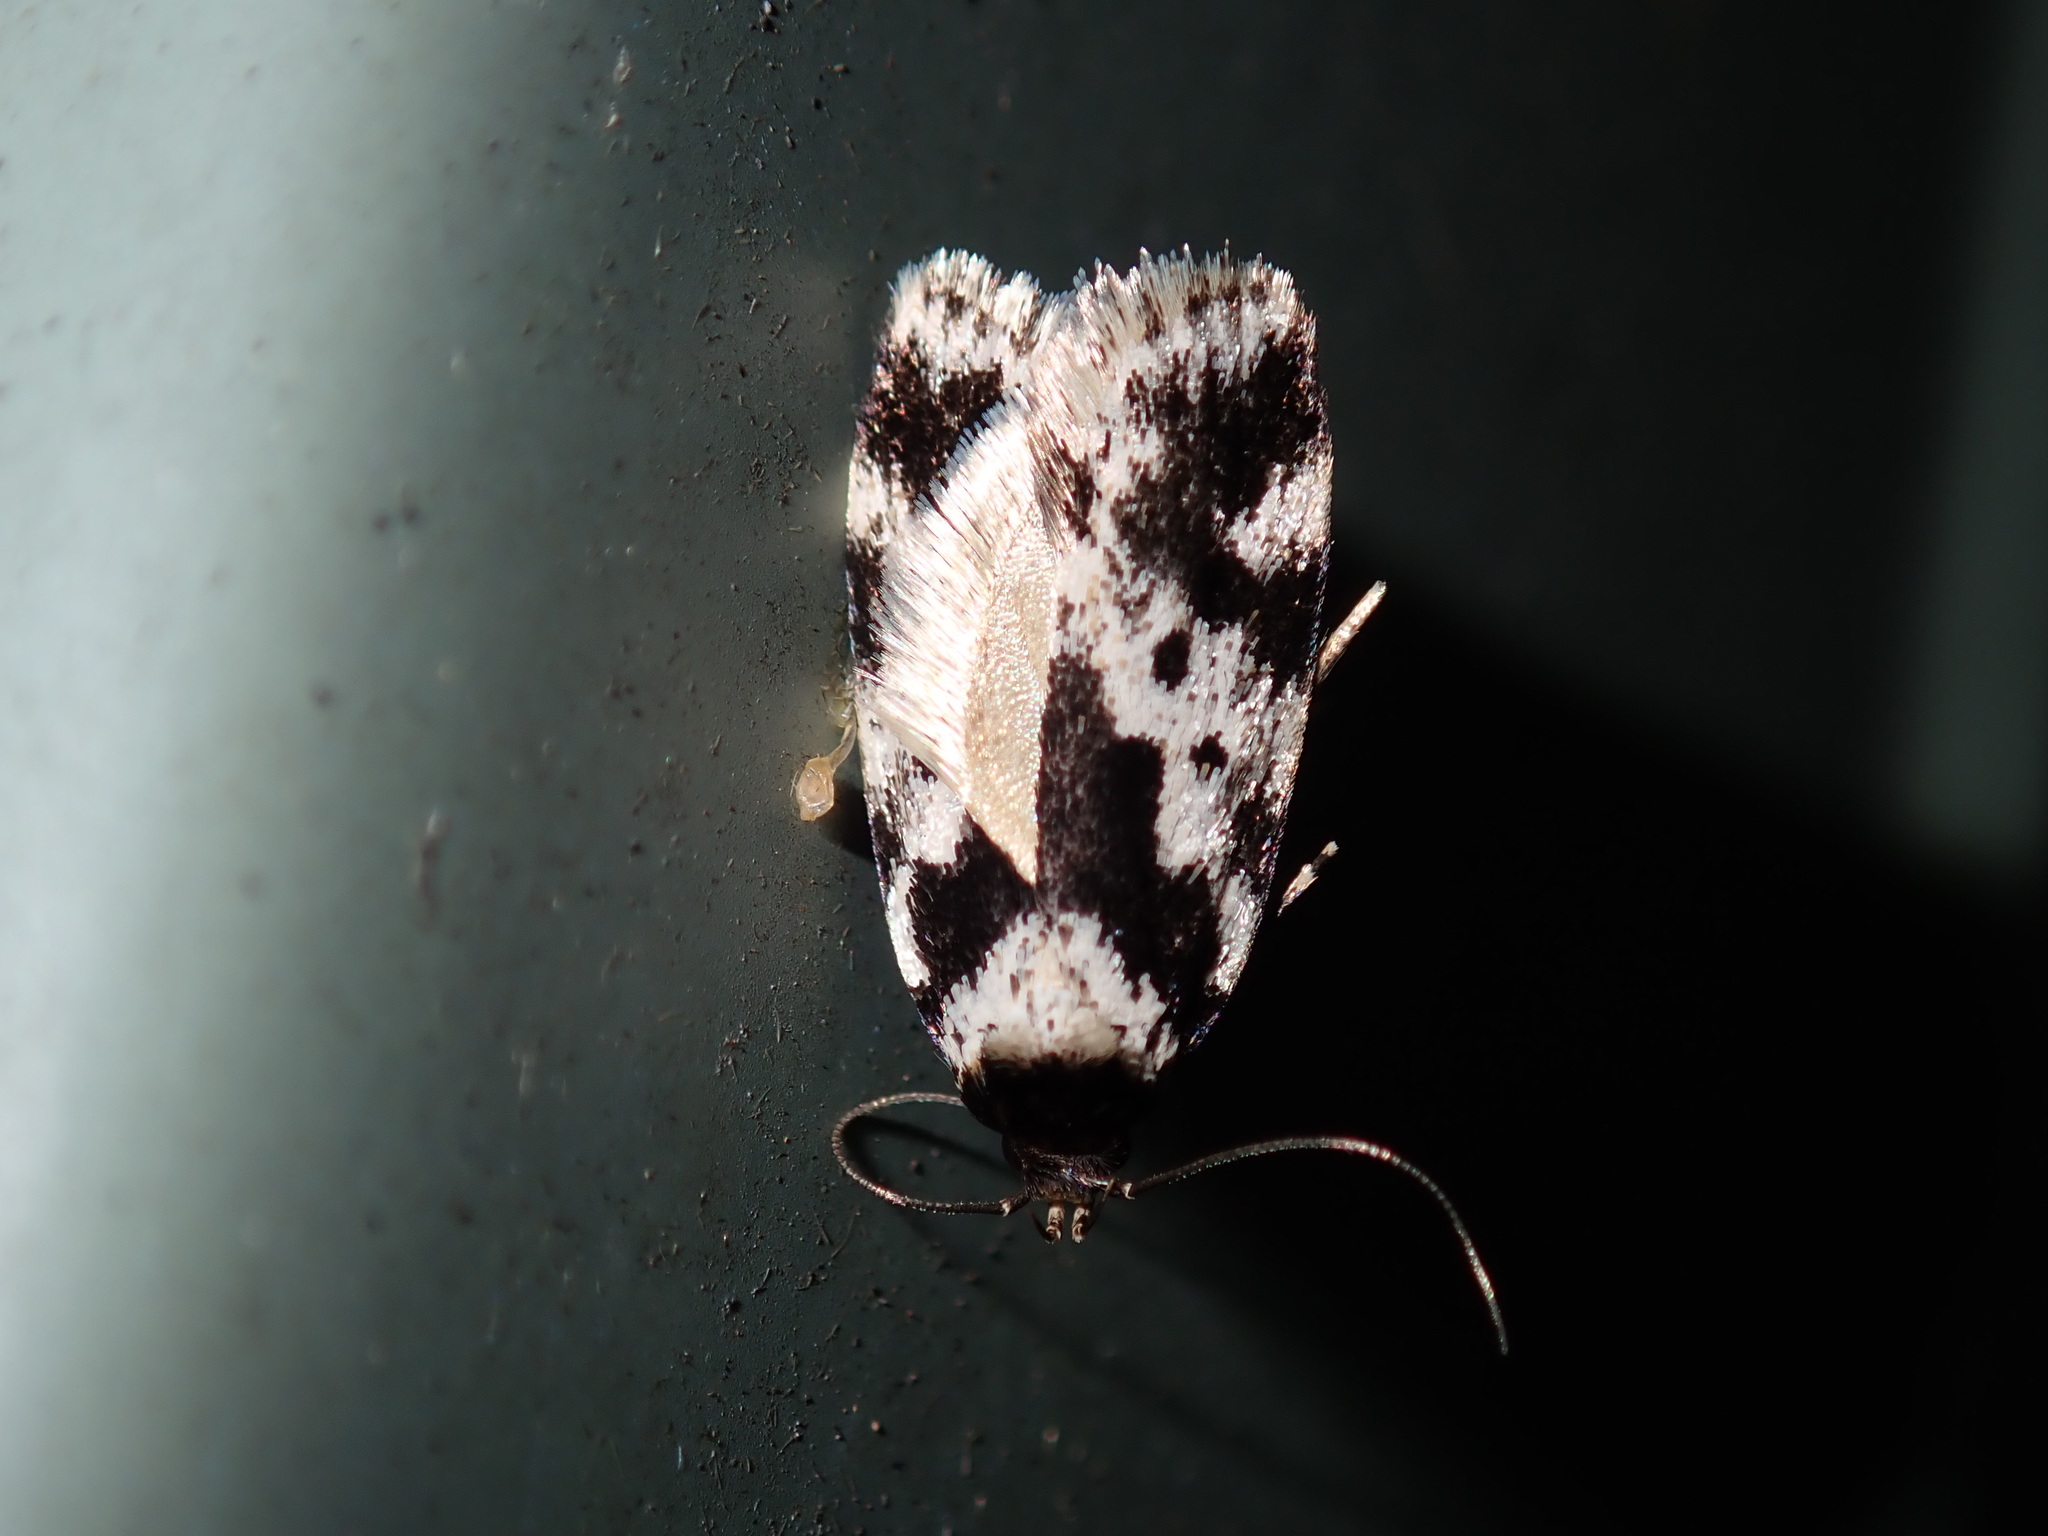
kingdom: Animalia
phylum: Arthropoda
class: Insecta
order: Lepidoptera
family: Oecophoridae
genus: Barea
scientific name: Barea confusella
